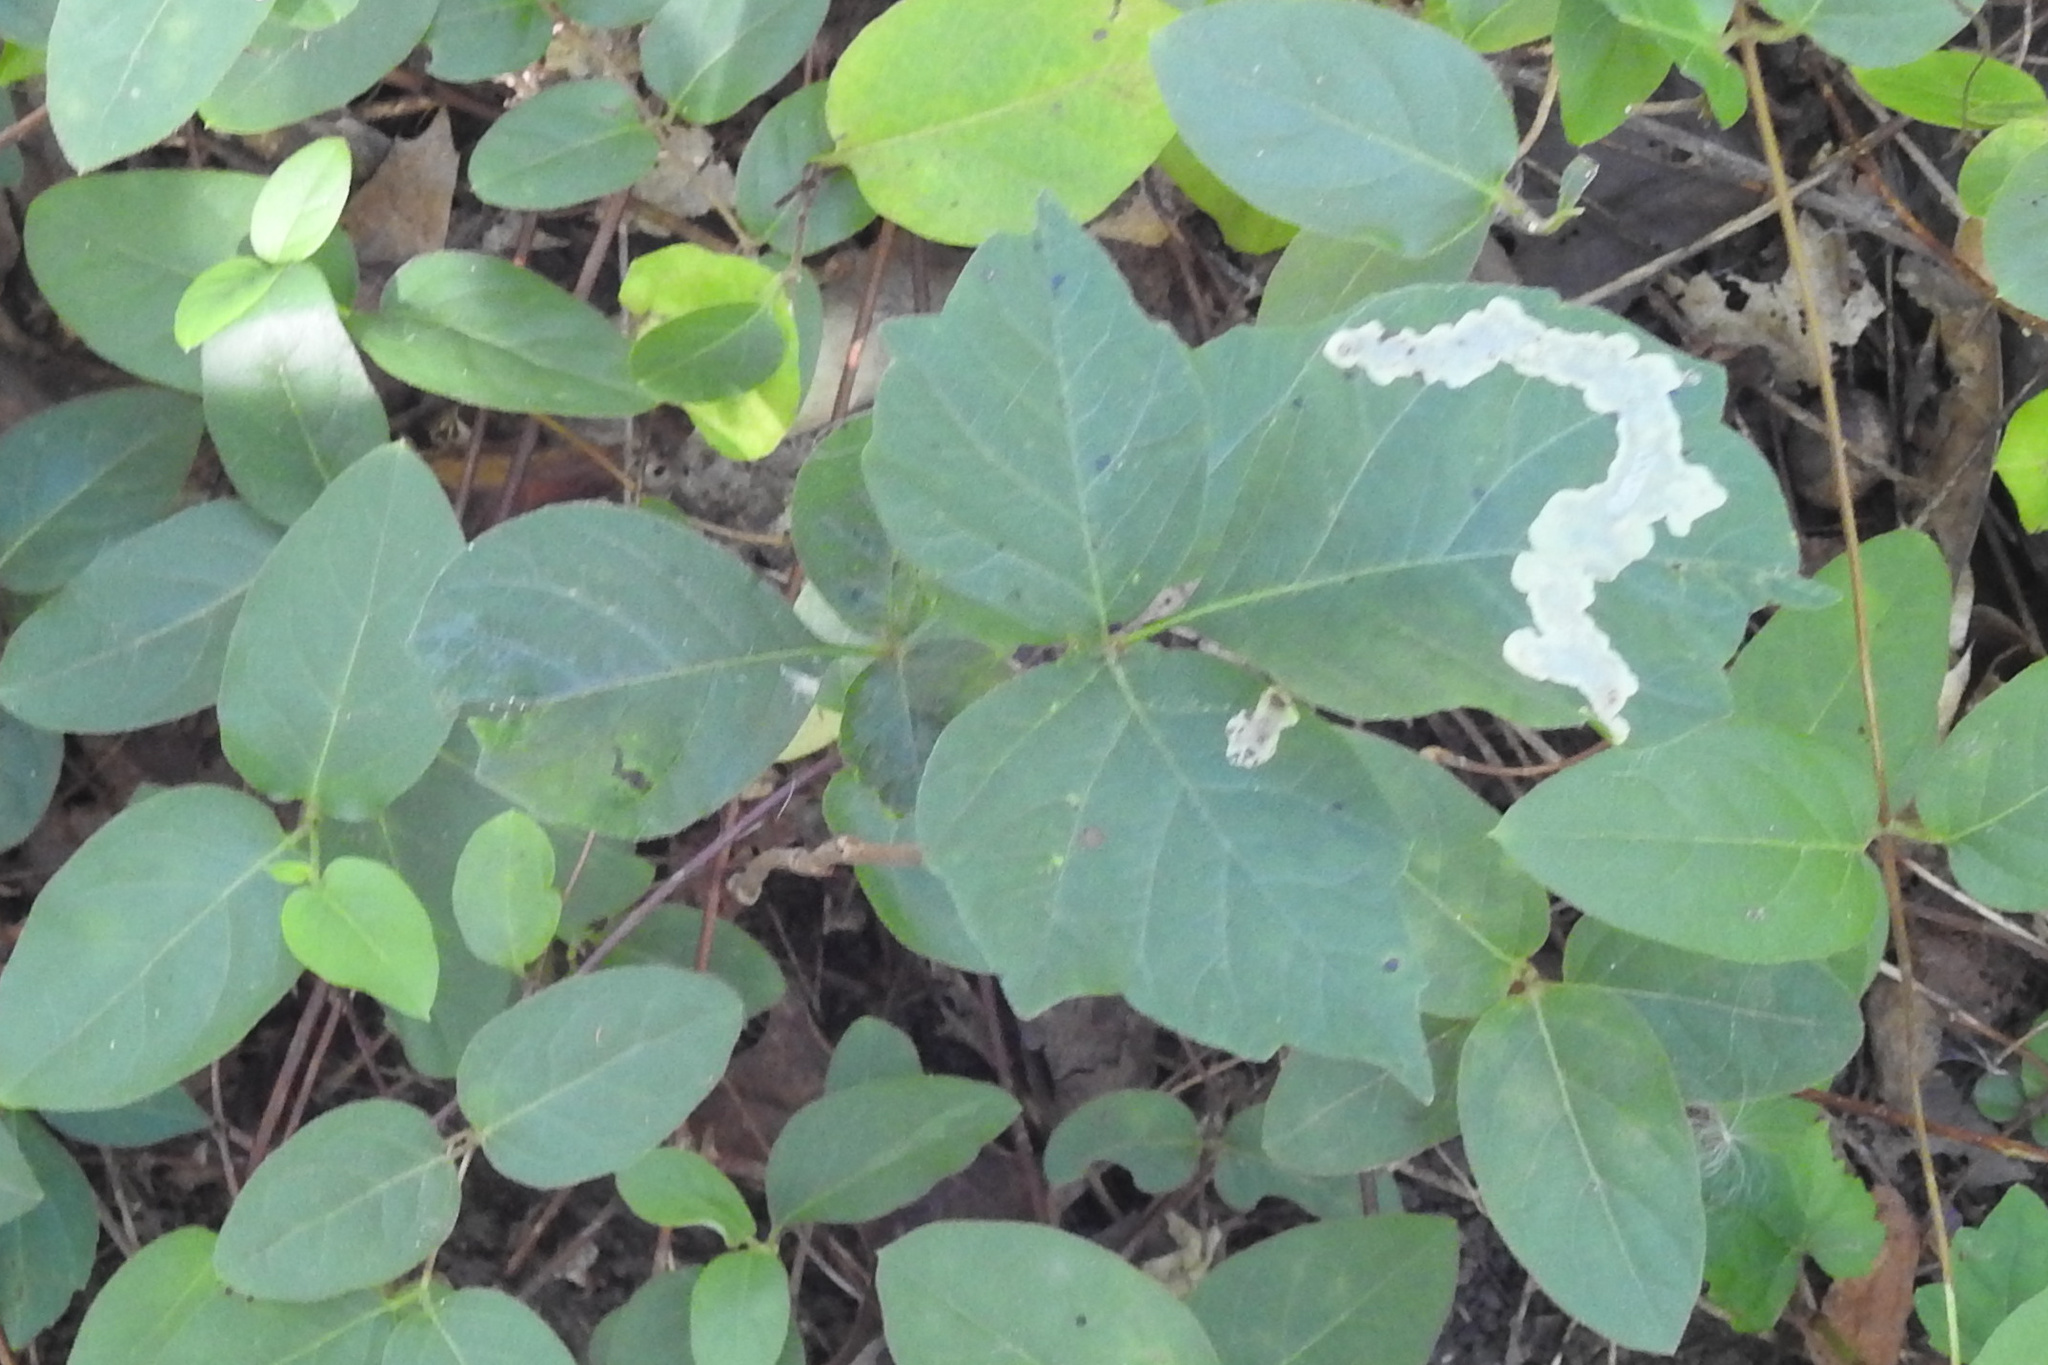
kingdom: Plantae
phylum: Tracheophyta
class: Magnoliopsida
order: Sapindales
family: Anacardiaceae
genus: Toxicodendron
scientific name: Toxicodendron radicans
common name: Poison ivy
